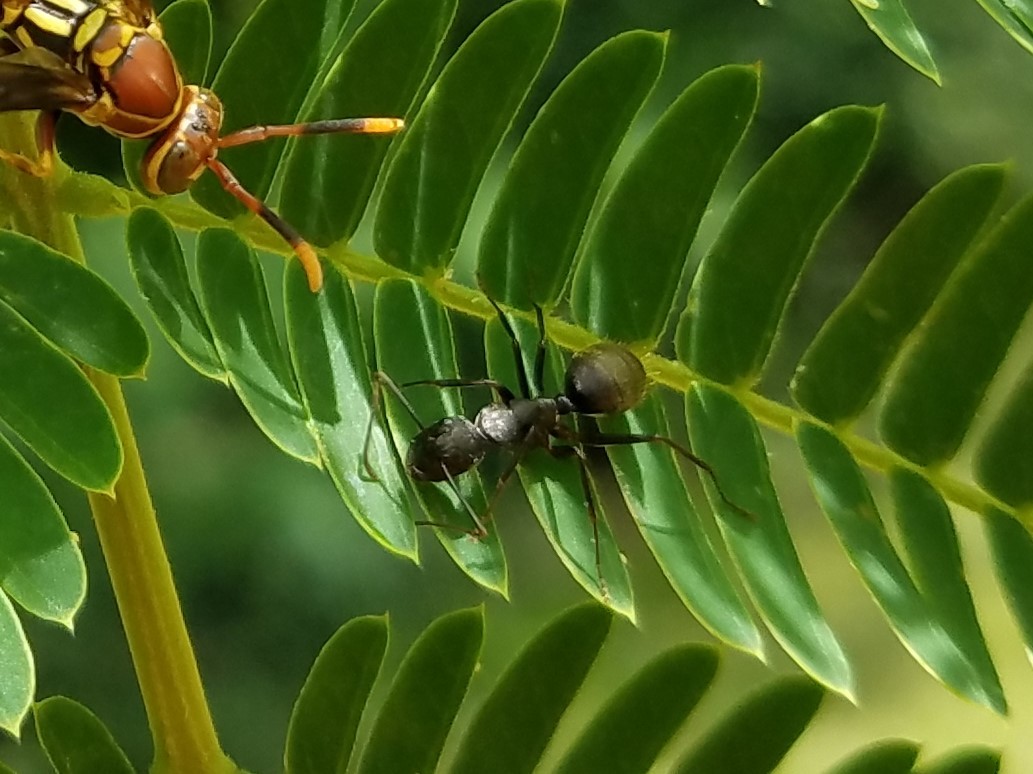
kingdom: Animalia
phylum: Arthropoda
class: Insecta
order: Hymenoptera
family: Formicidae
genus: Camponotus
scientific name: Camponotus pennsylvanicus
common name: Black carpenter ant
